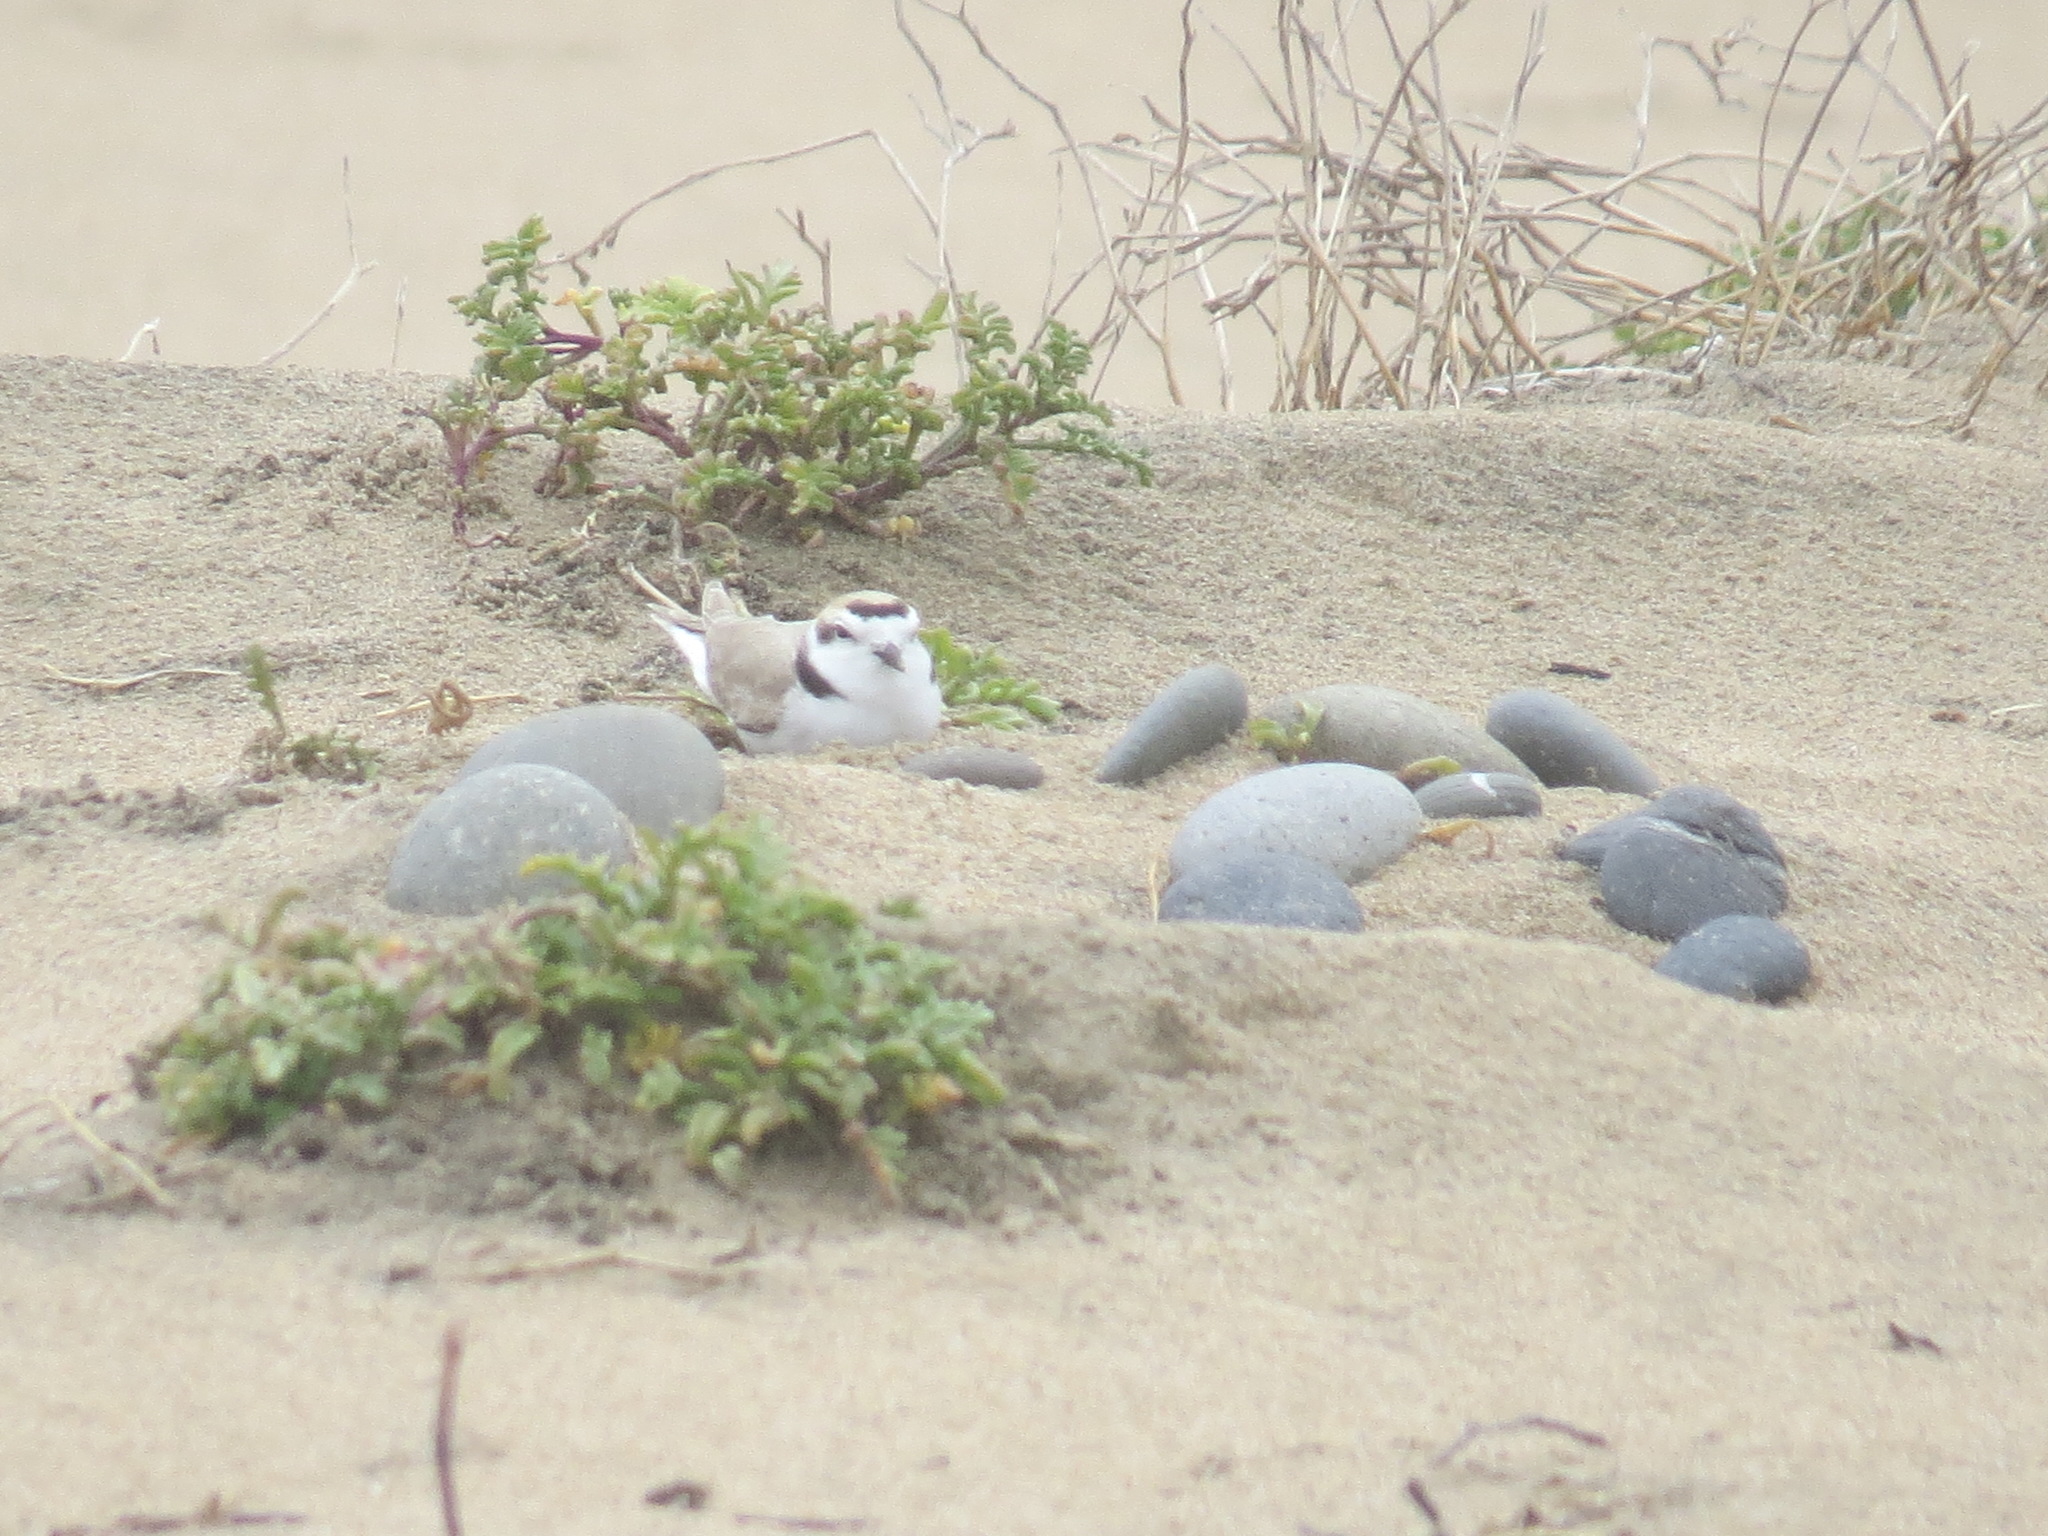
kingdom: Animalia
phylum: Chordata
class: Aves
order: Charadriiformes
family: Charadriidae
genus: Anarhynchus
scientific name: Anarhynchus
